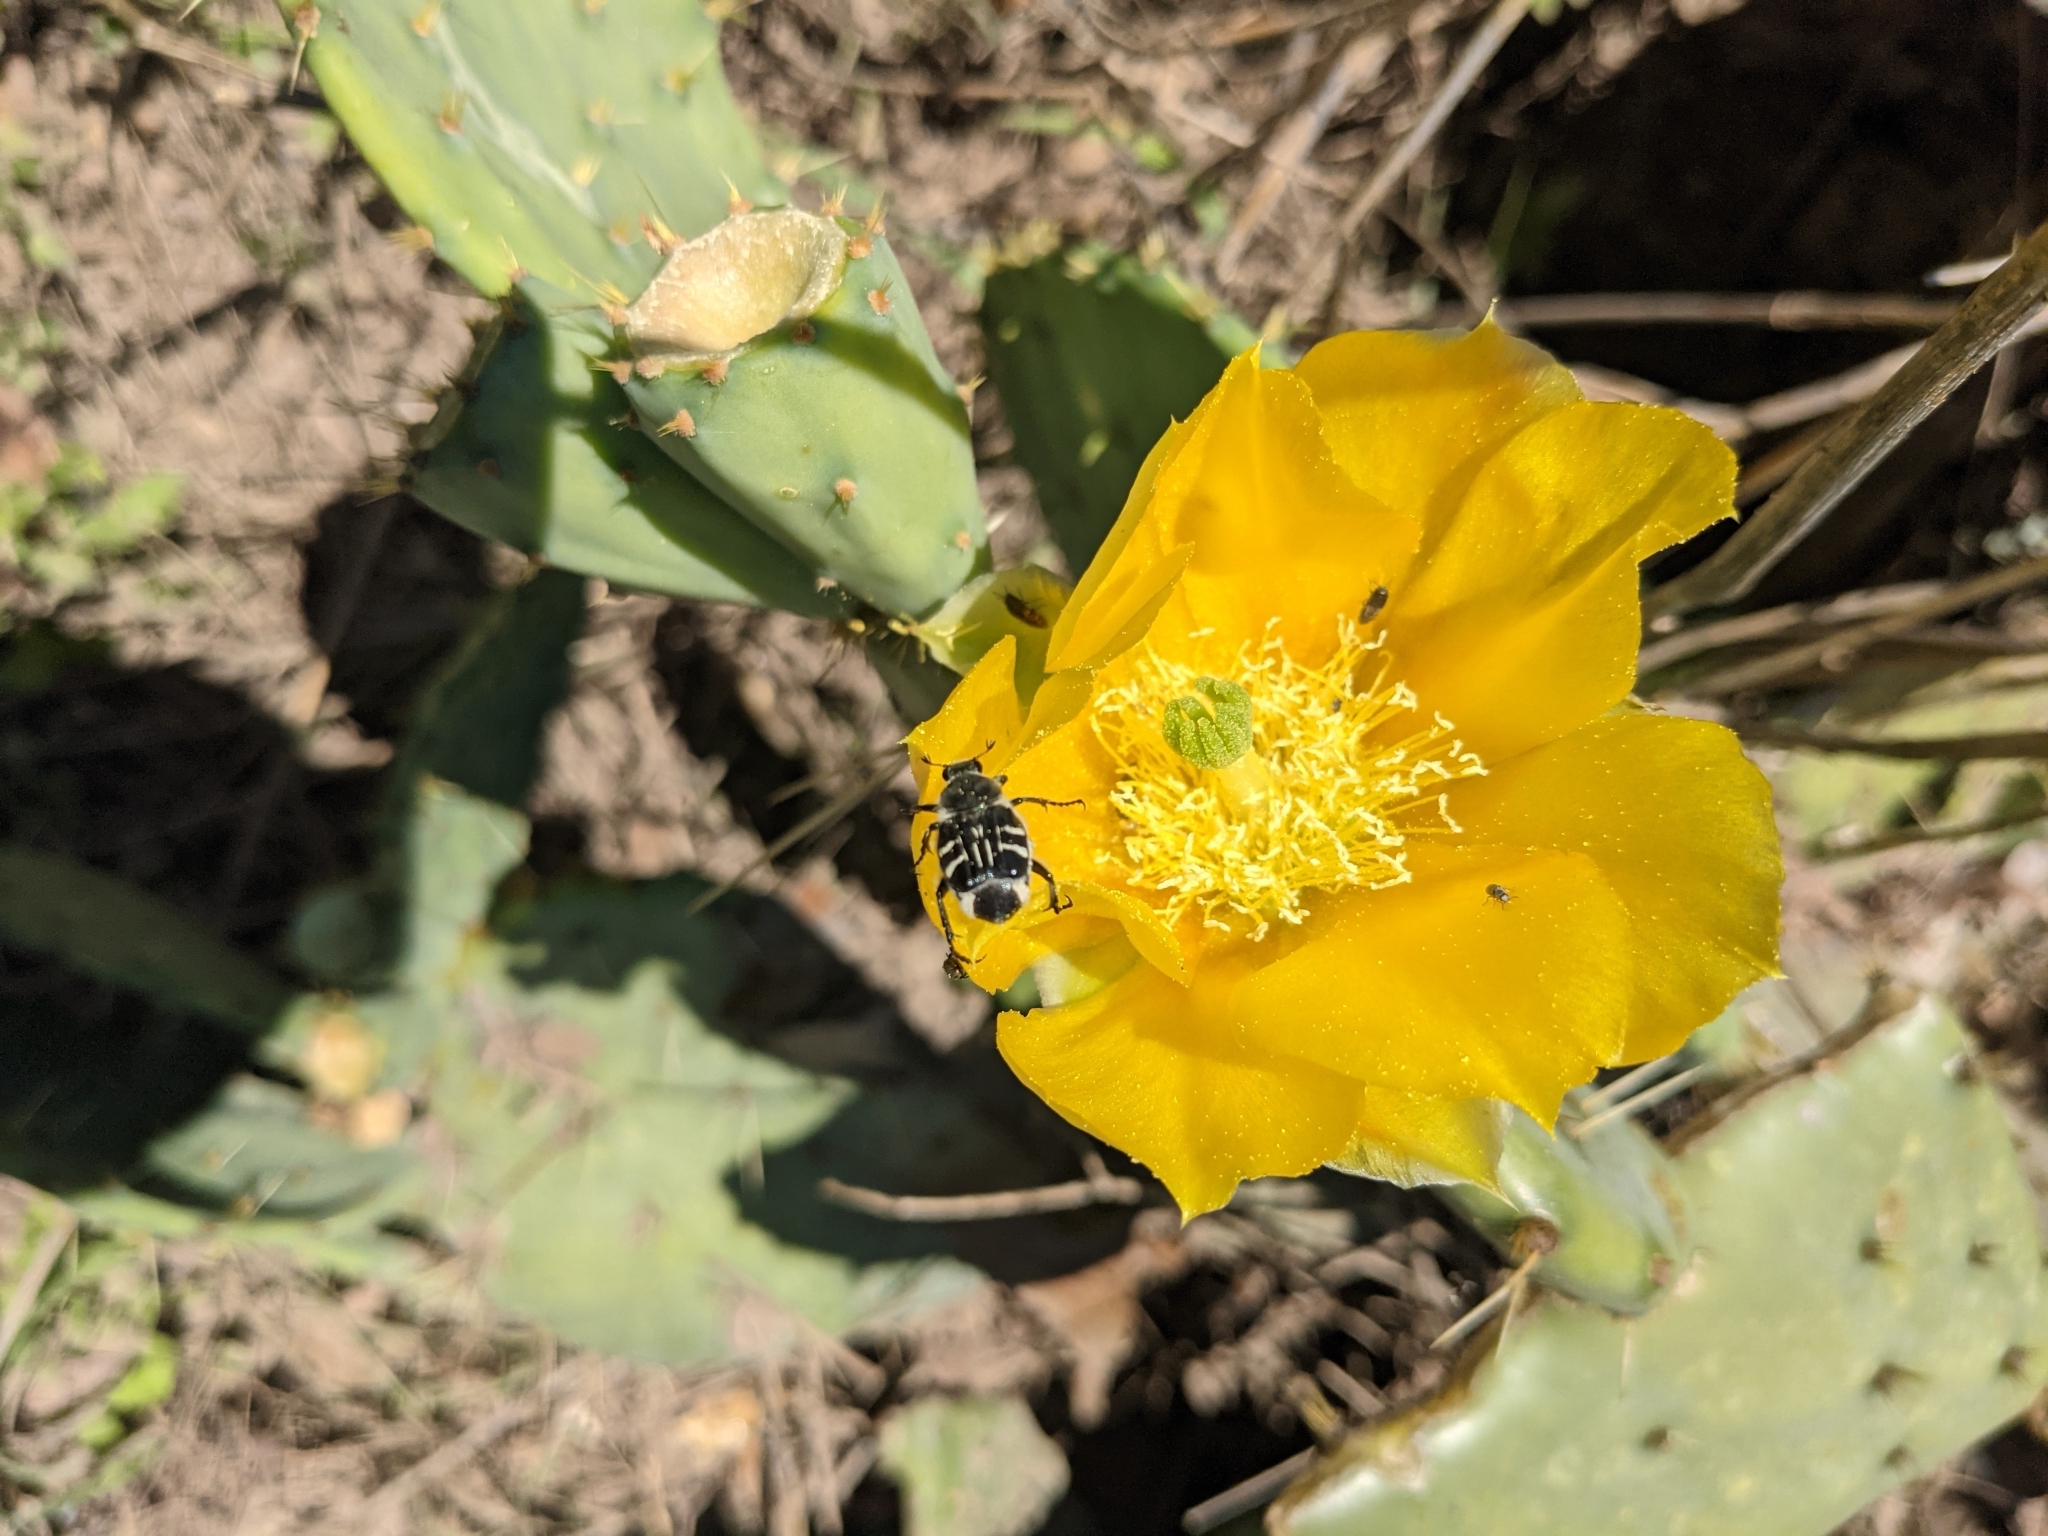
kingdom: Animalia
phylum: Arthropoda
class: Insecta
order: Coleoptera
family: Scarabaeidae
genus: Trichiotinus
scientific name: Trichiotinus texanus
